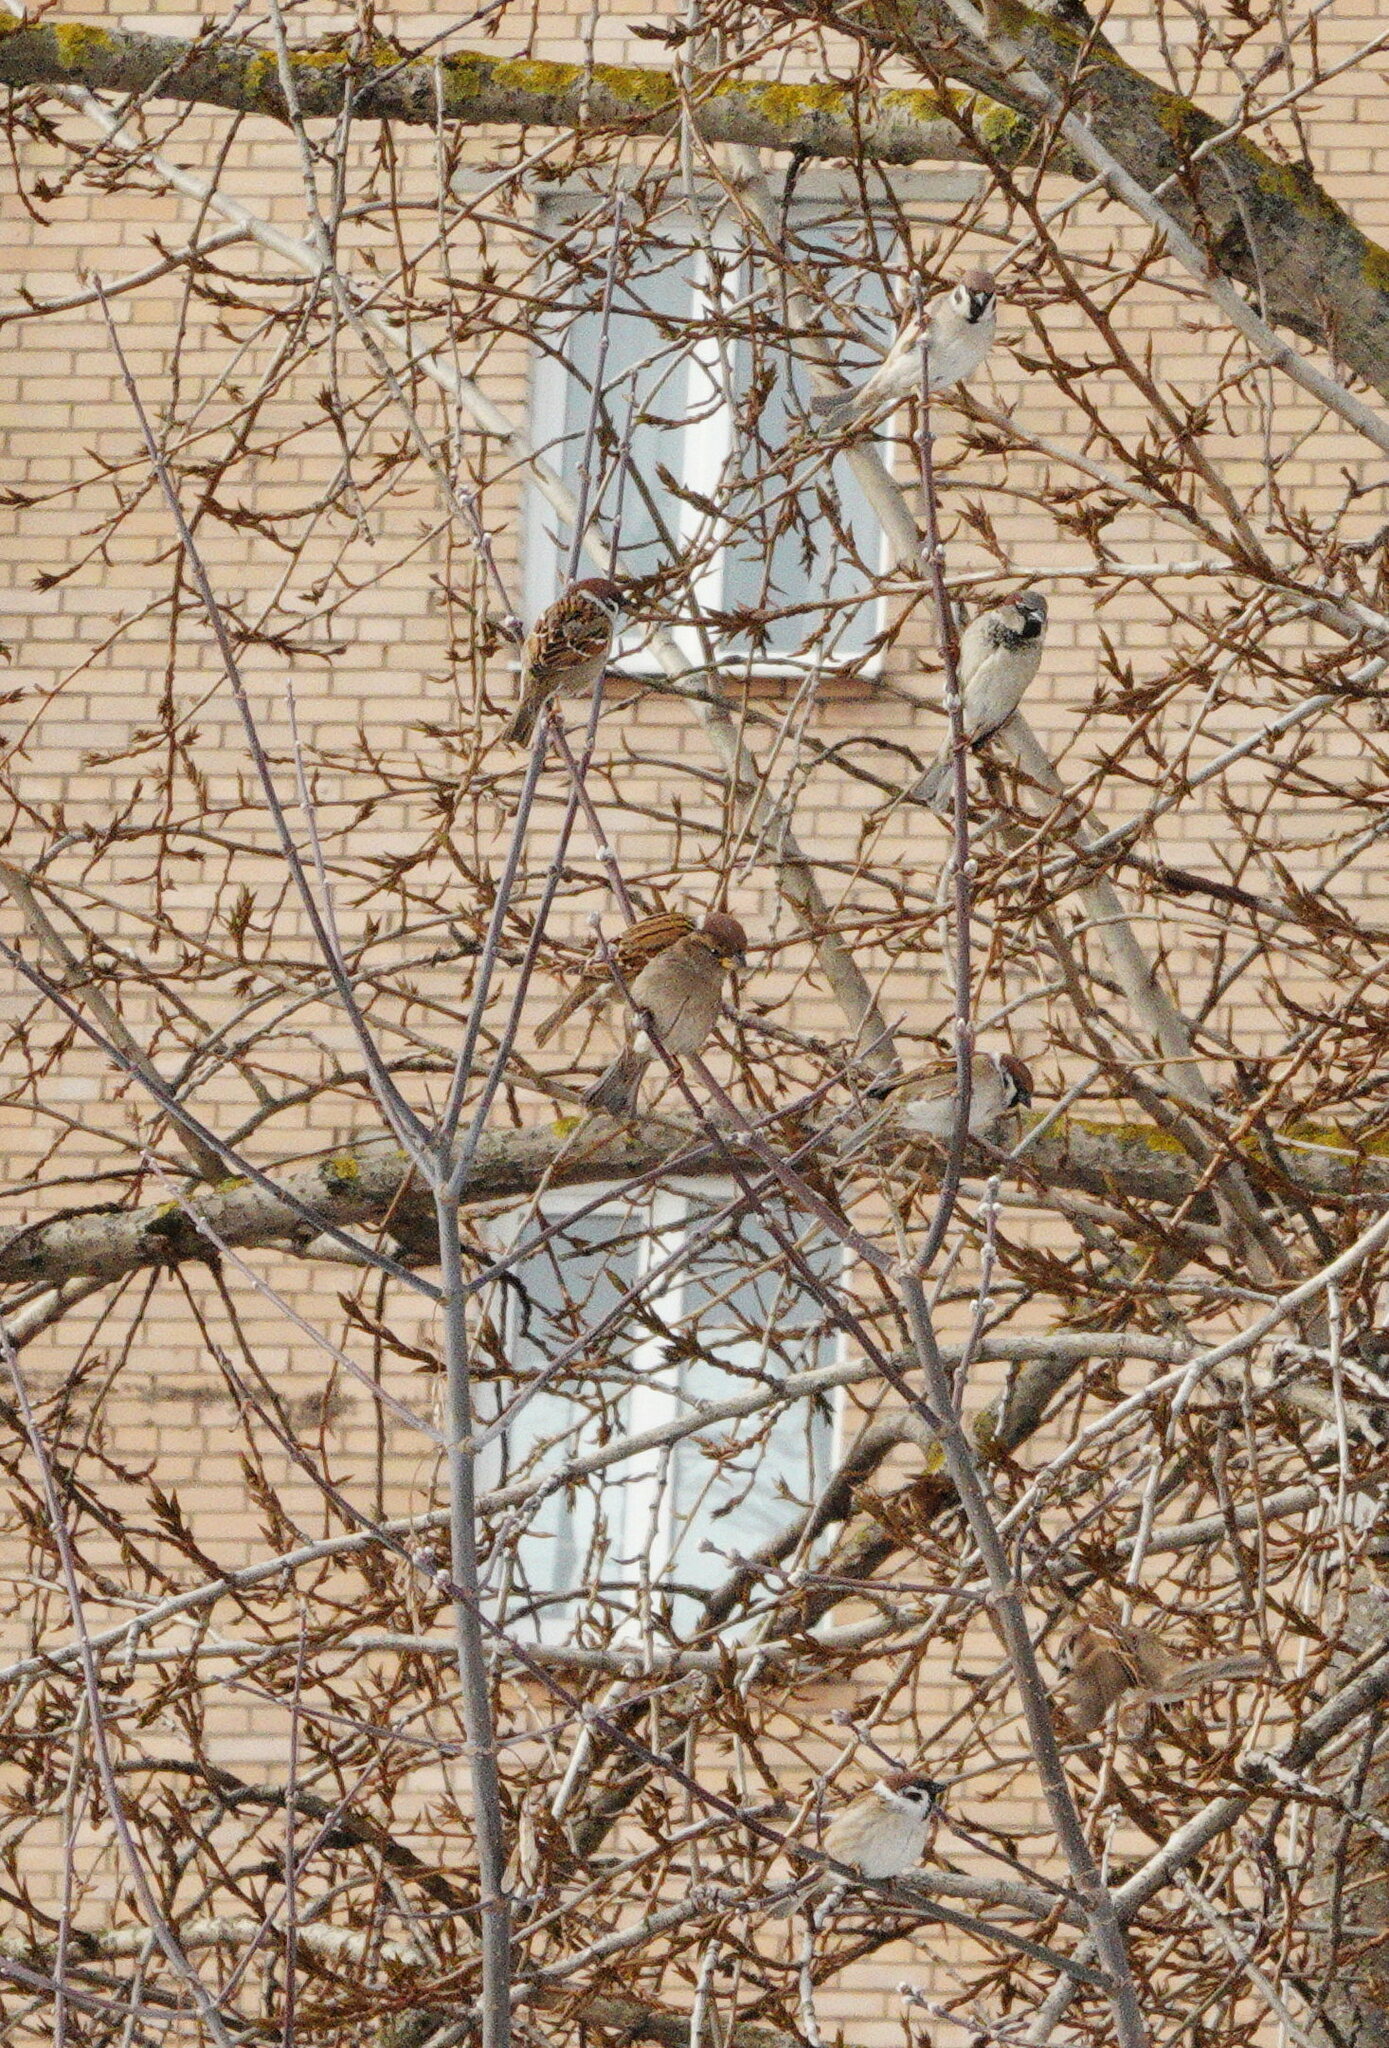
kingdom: Animalia
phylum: Chordata
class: Aves
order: Passeriformes
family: Passeridae
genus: Passer
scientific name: Passer montanus
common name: Eurasian tree sparrow
